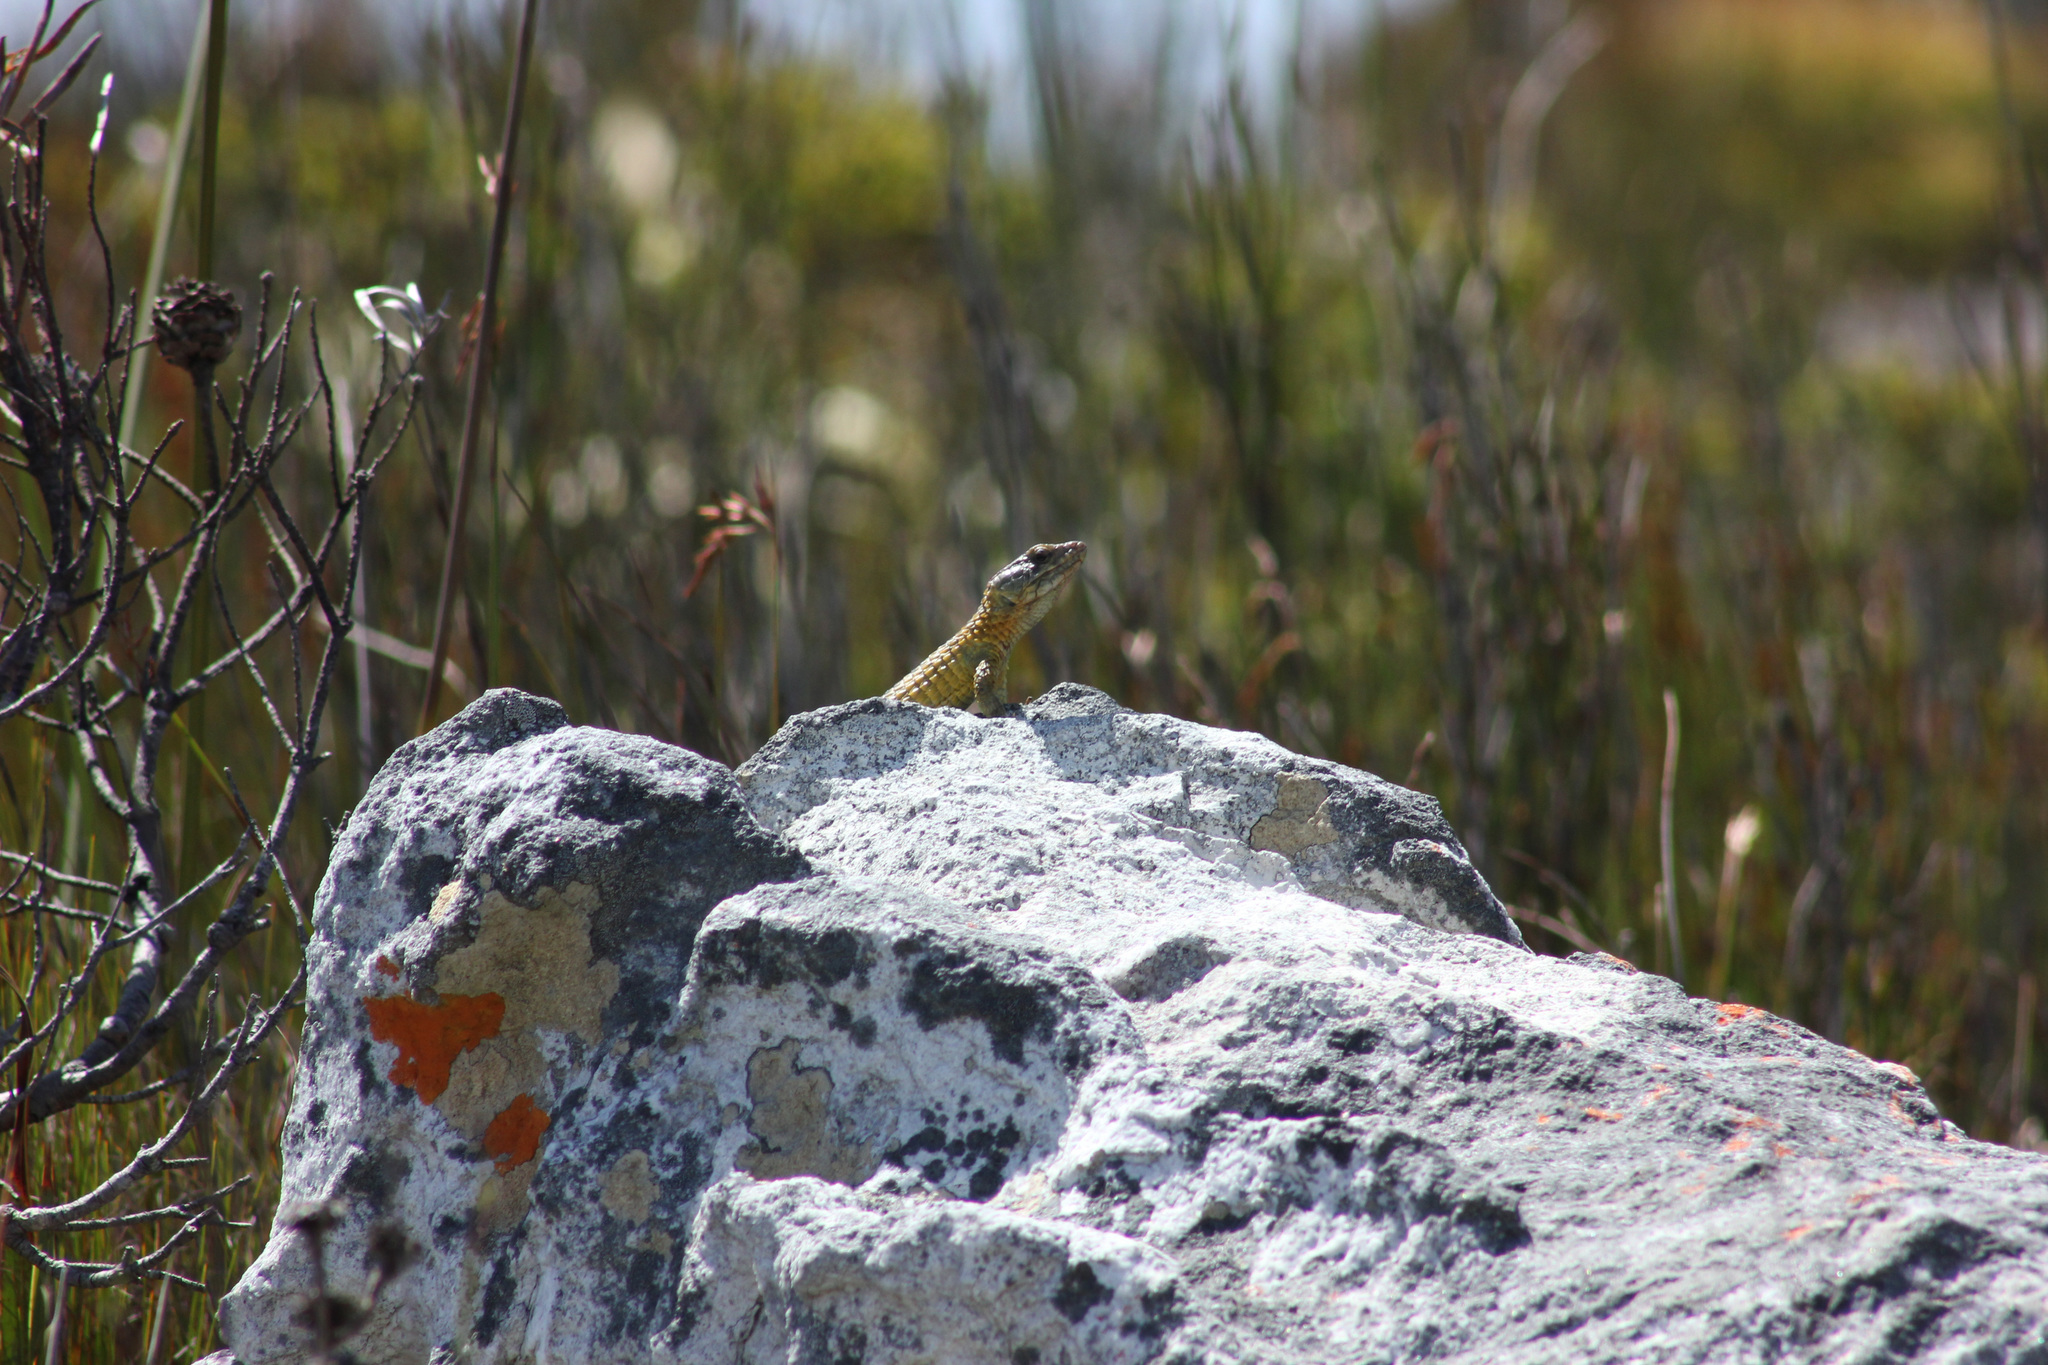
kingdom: Animalia
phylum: Chordata
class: Squamata
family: Cordylidae
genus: Cordylus
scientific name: Cordylus cordylus
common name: Cape girdled lizard
